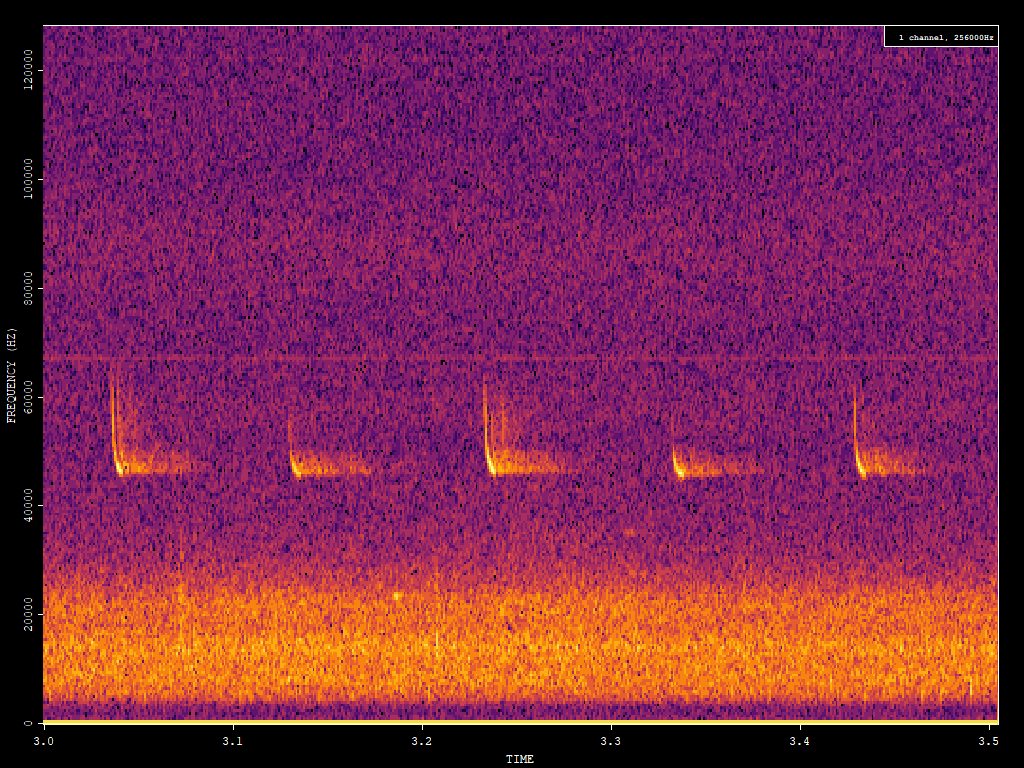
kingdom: Animalia
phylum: Chordata
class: Mammalia
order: Chiroptera
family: Vespertilionidae
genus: Pipistrellus
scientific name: Pipistrellus pipistrellus
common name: Common pipistrelle
